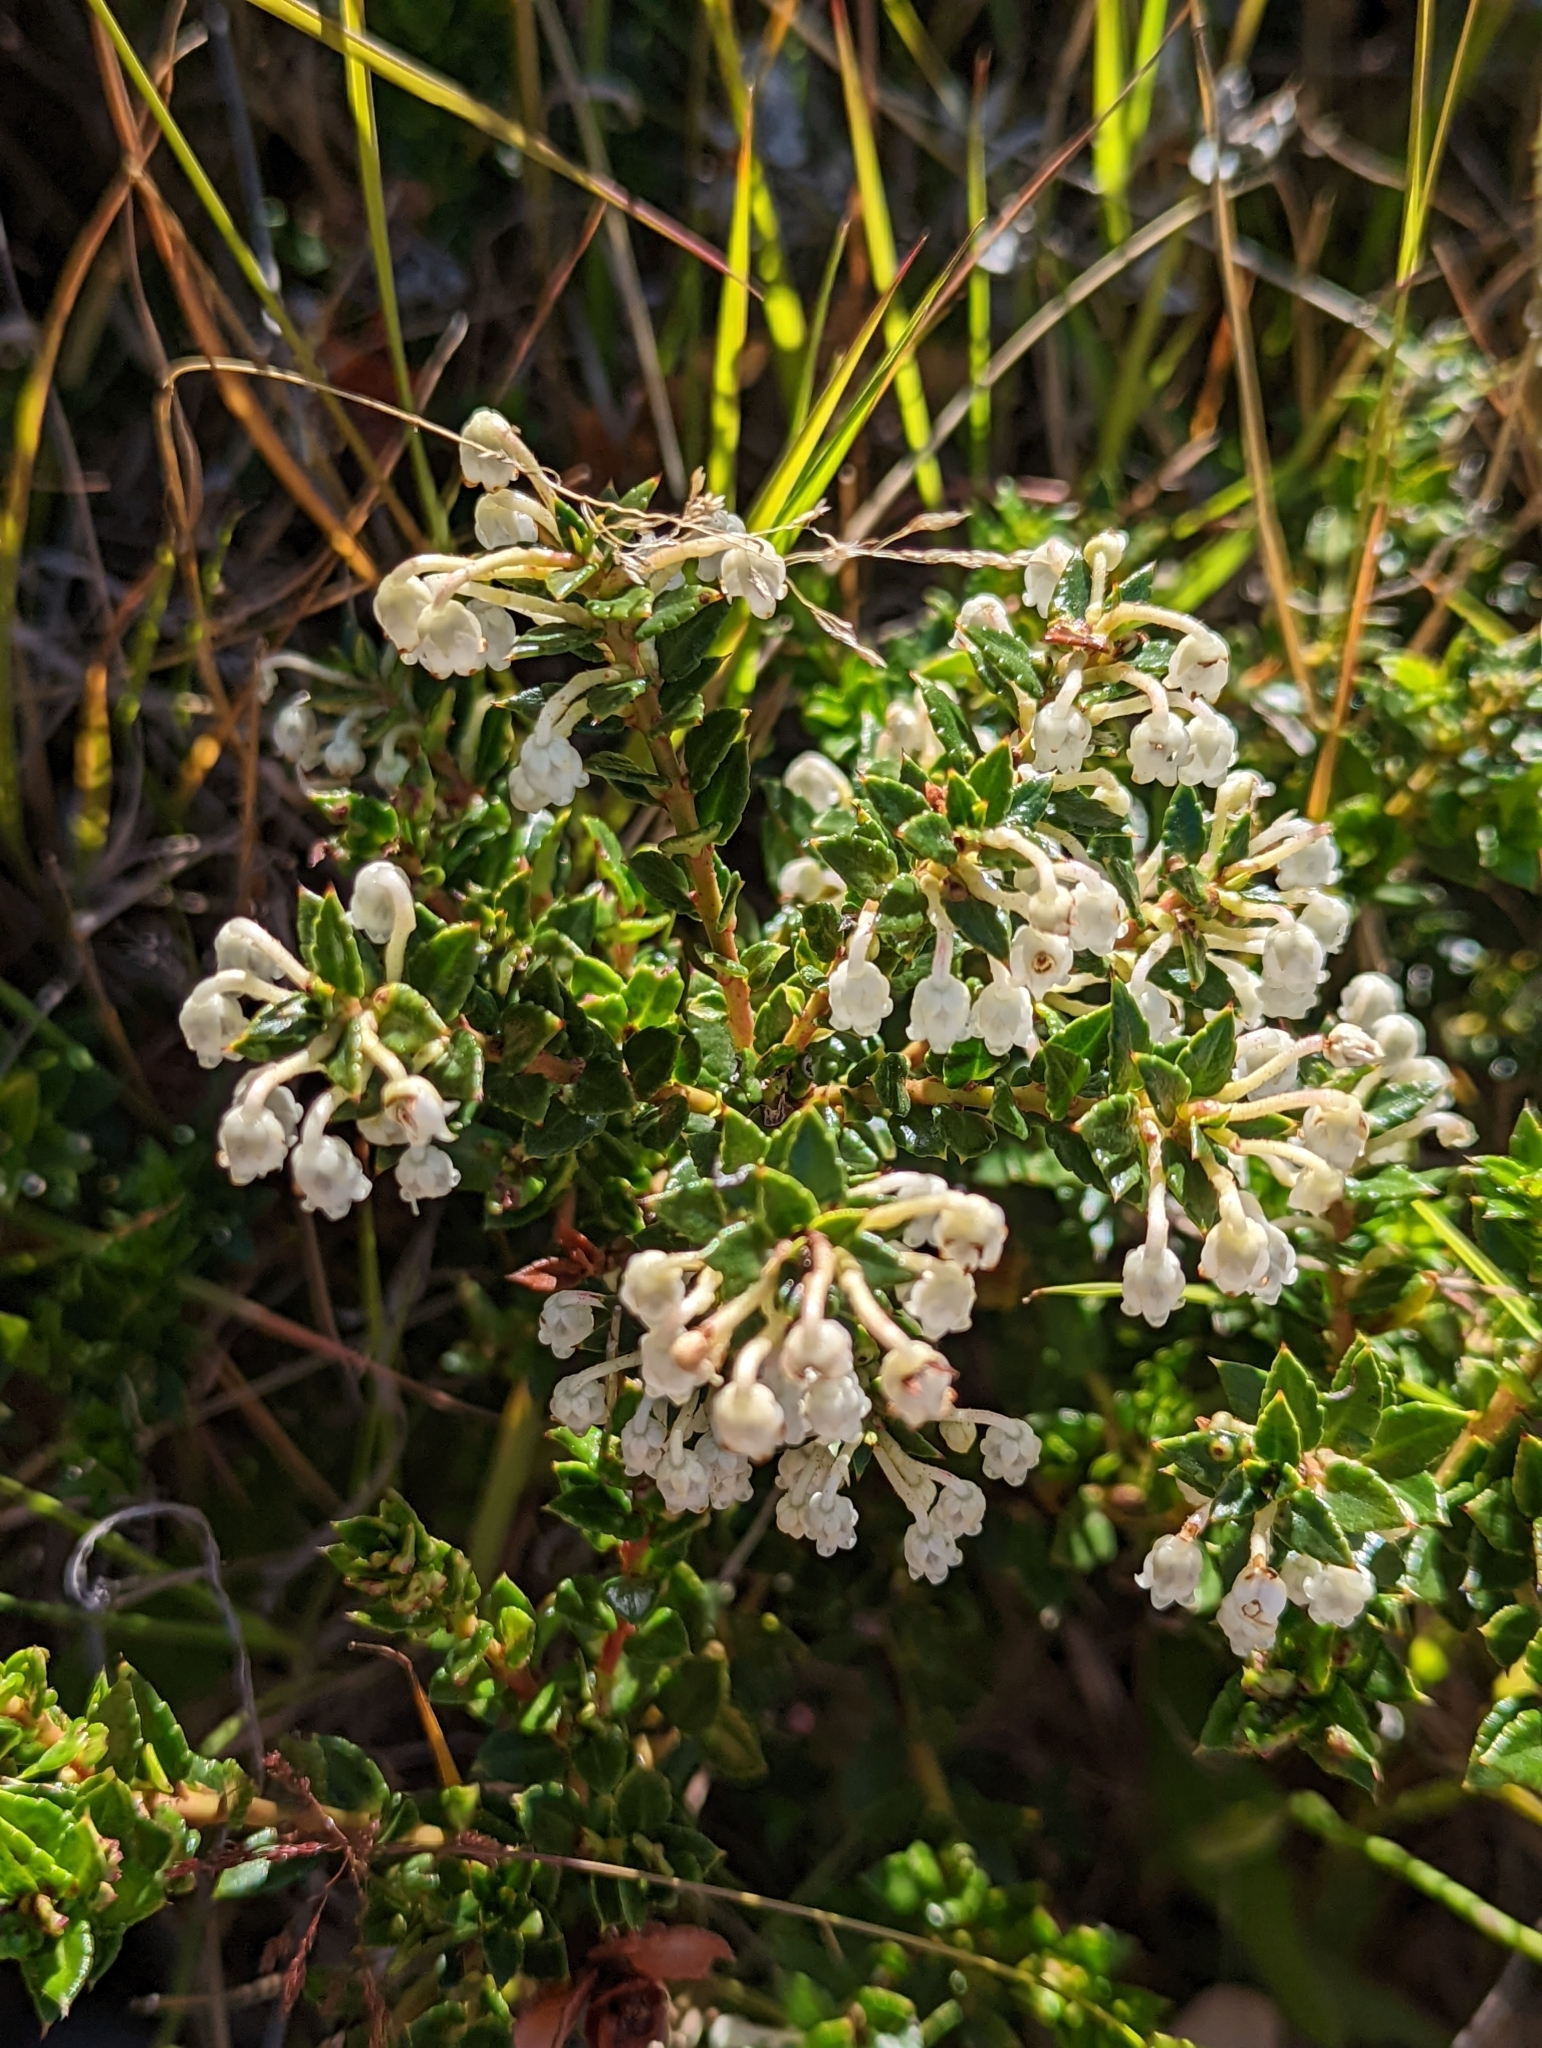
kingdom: Plantae
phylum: Tracheophyta
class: Magnoliopsida
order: Ericales
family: Ericaceae
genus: Gaultheria
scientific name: Gaultheria mucronata
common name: Prickly heath
